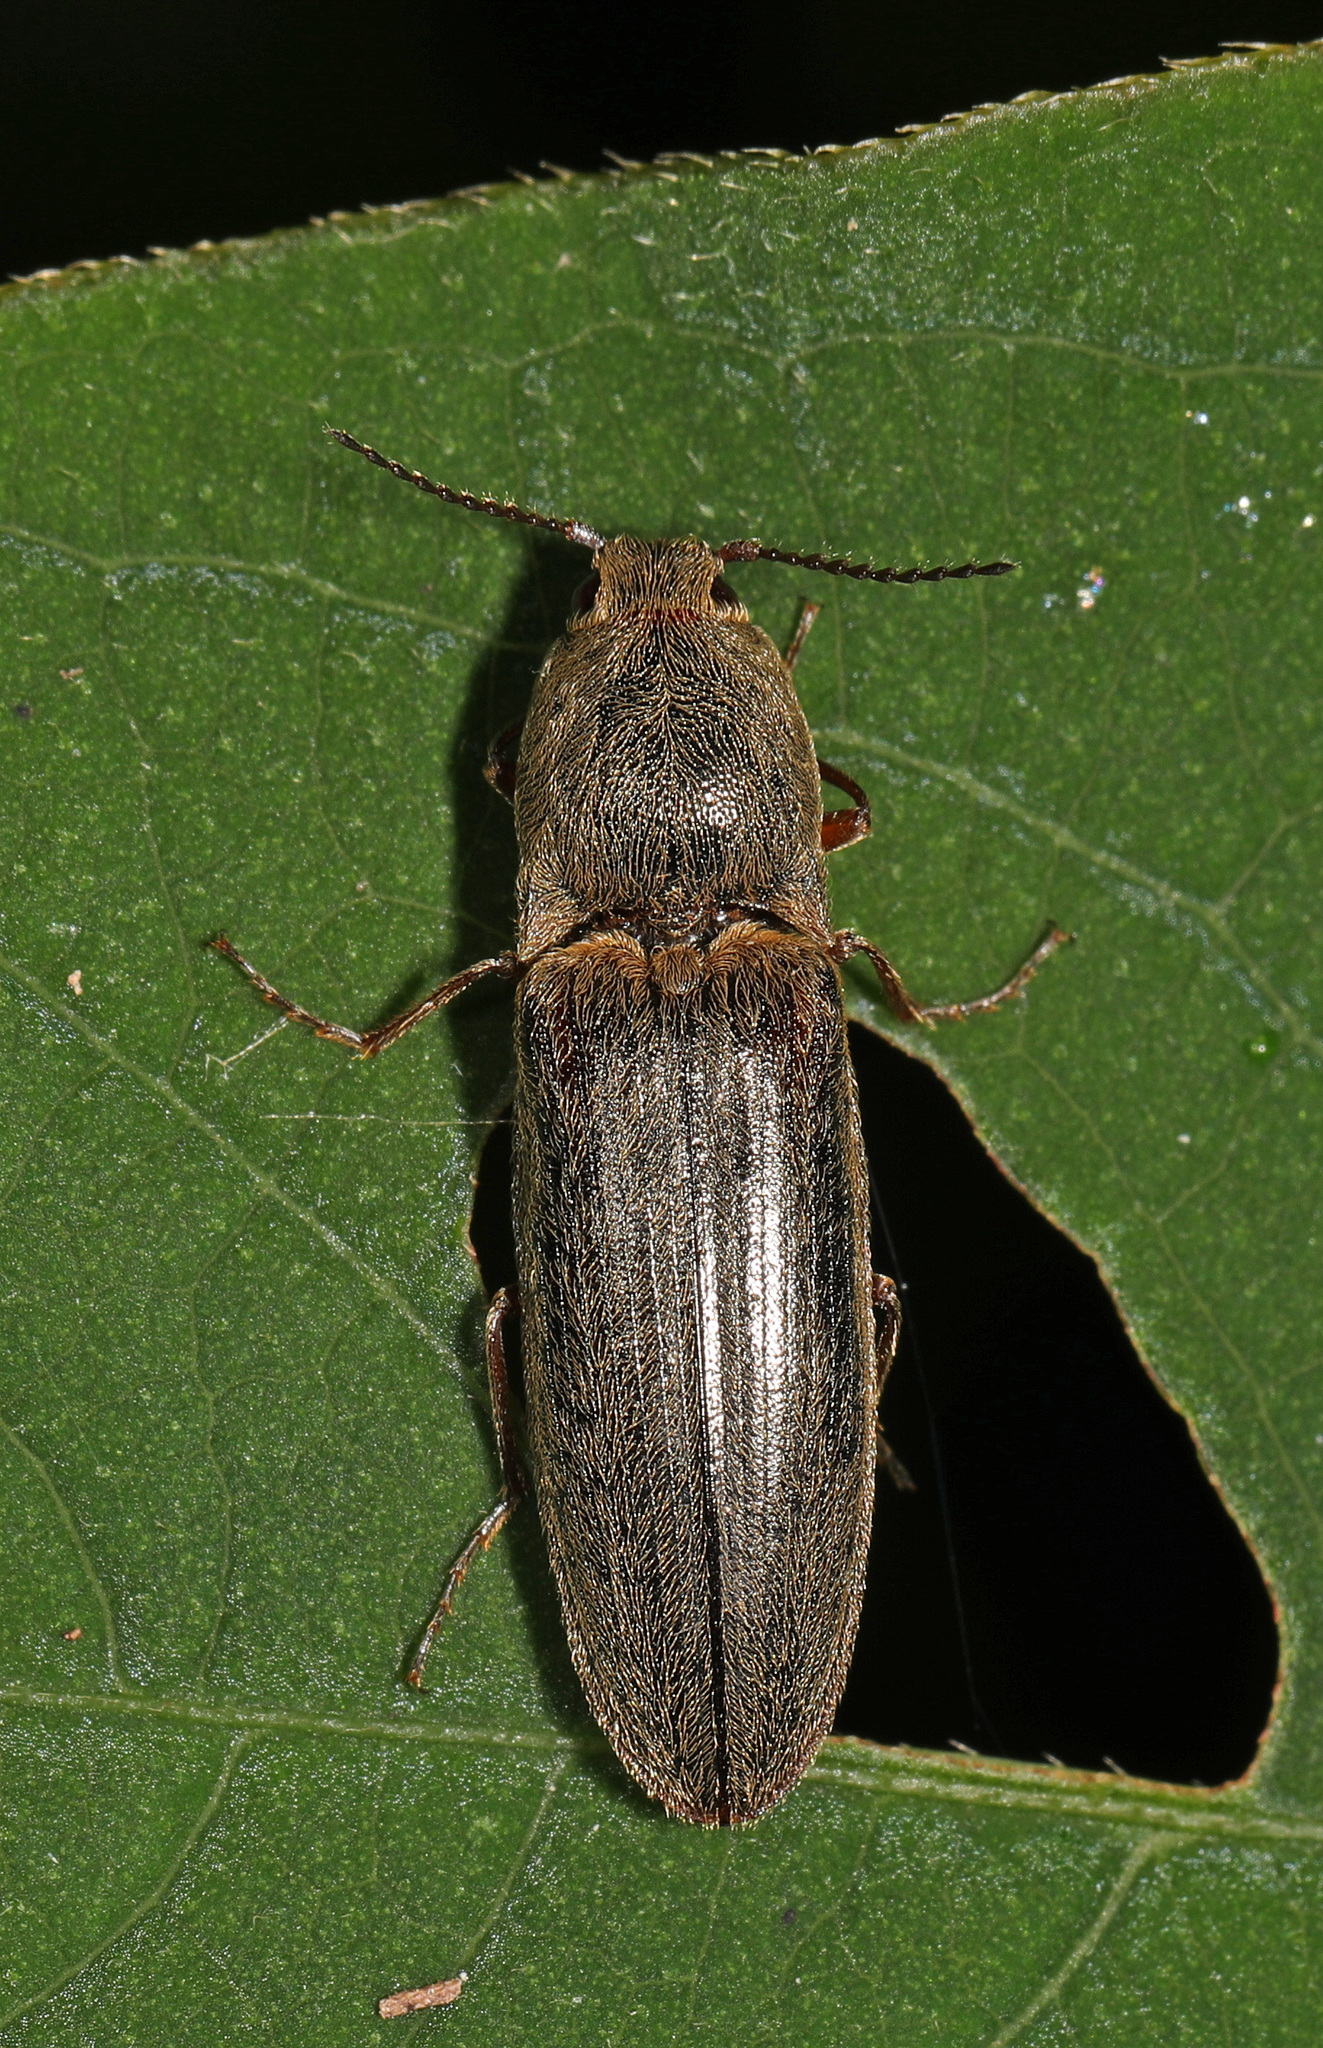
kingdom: Animalia
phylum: Arthropoda
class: Insecta
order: Coleoptera
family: Elateridae
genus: Gambrinus
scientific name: Gambrinus griseus
